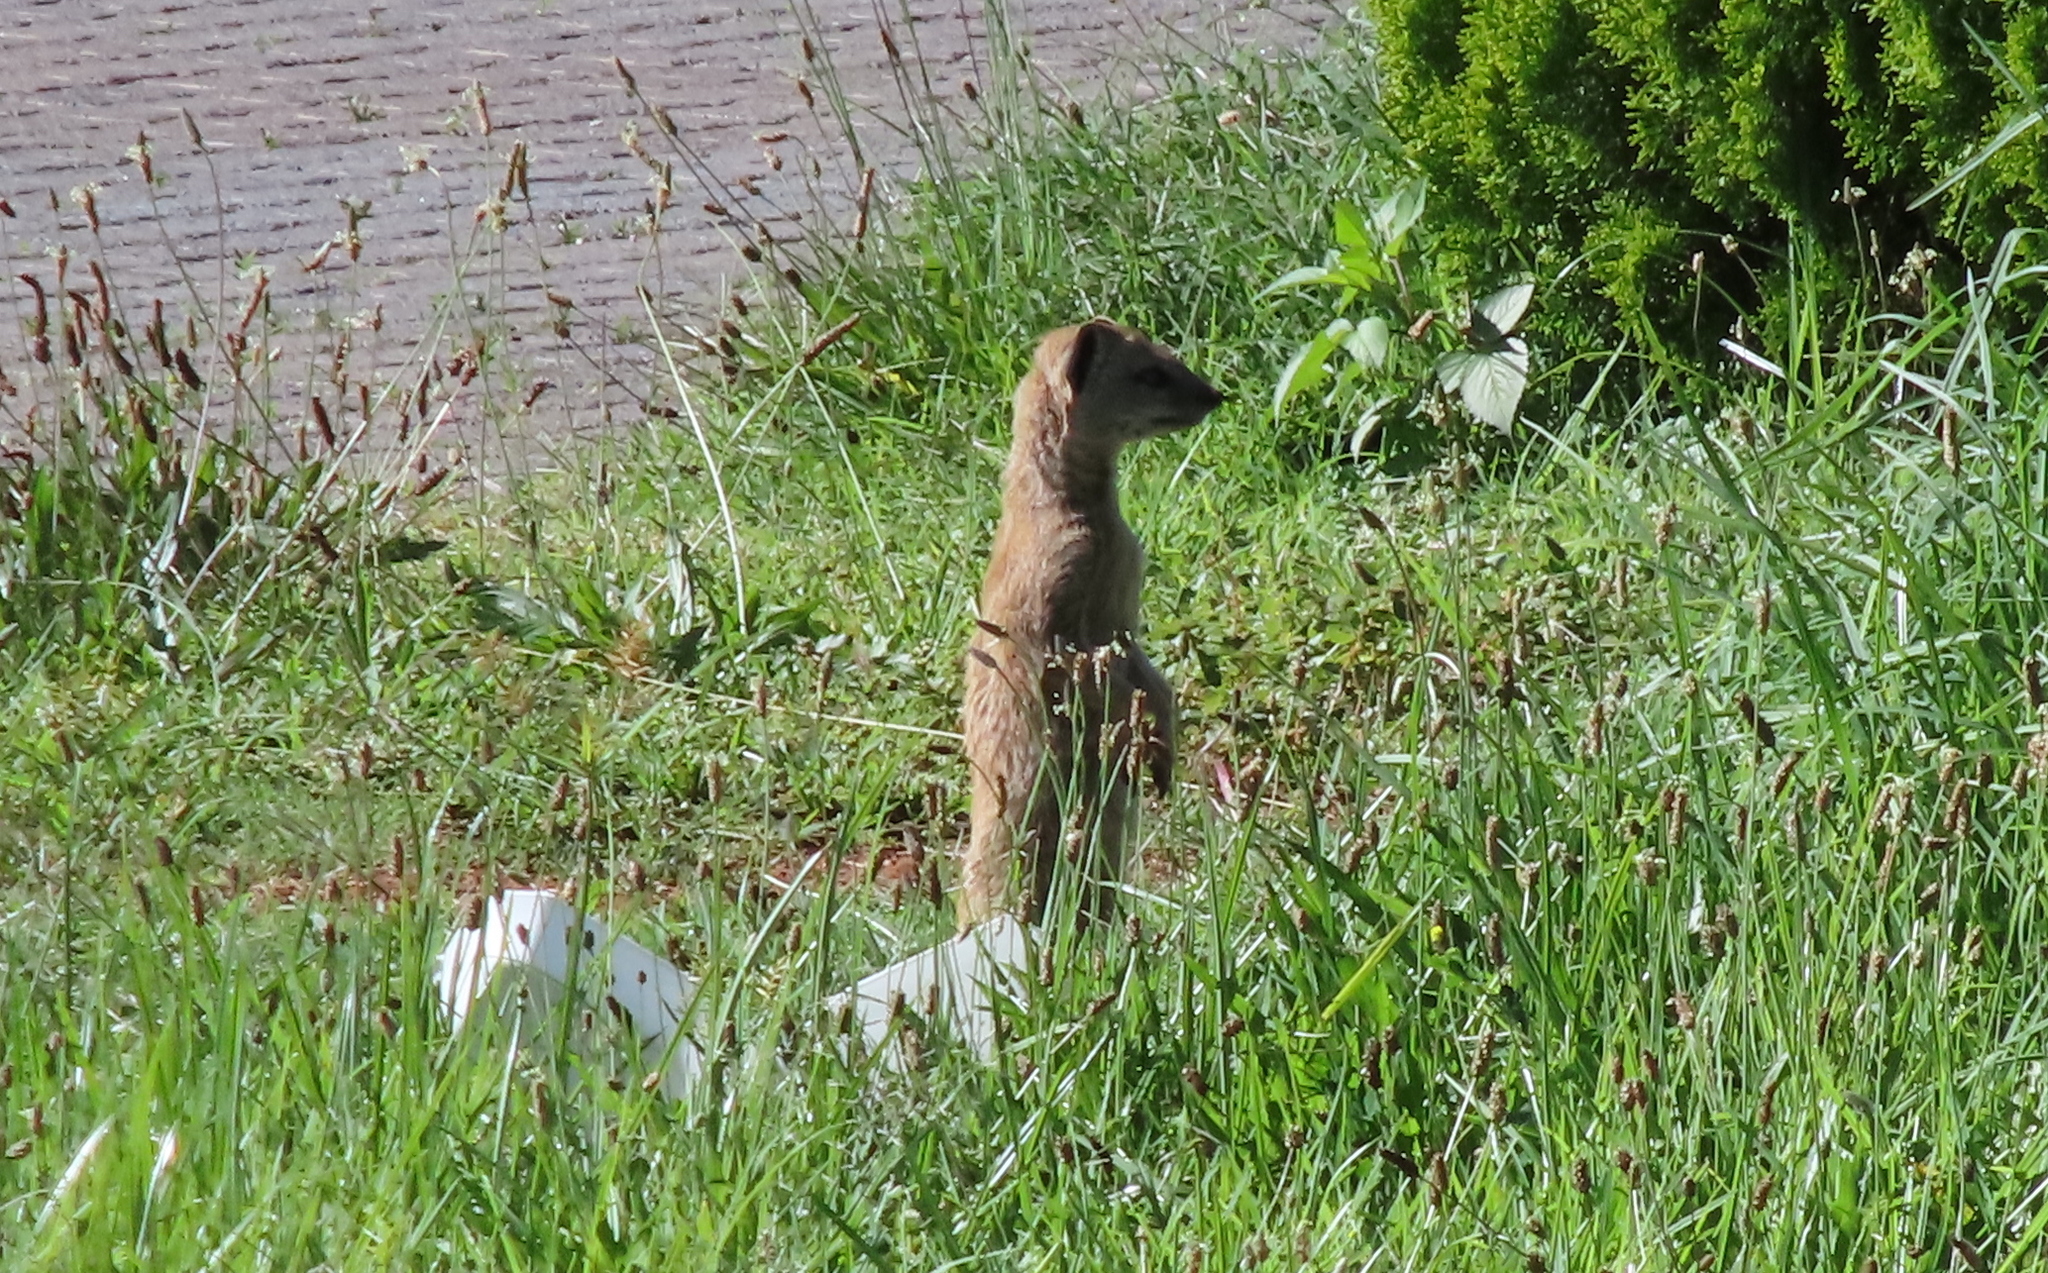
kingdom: Animalia
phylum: Chordata
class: Mammalia
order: Carnivora
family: Herpestidae
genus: Cynictis
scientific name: Cynictis penicillata
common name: Yellow mongoose
